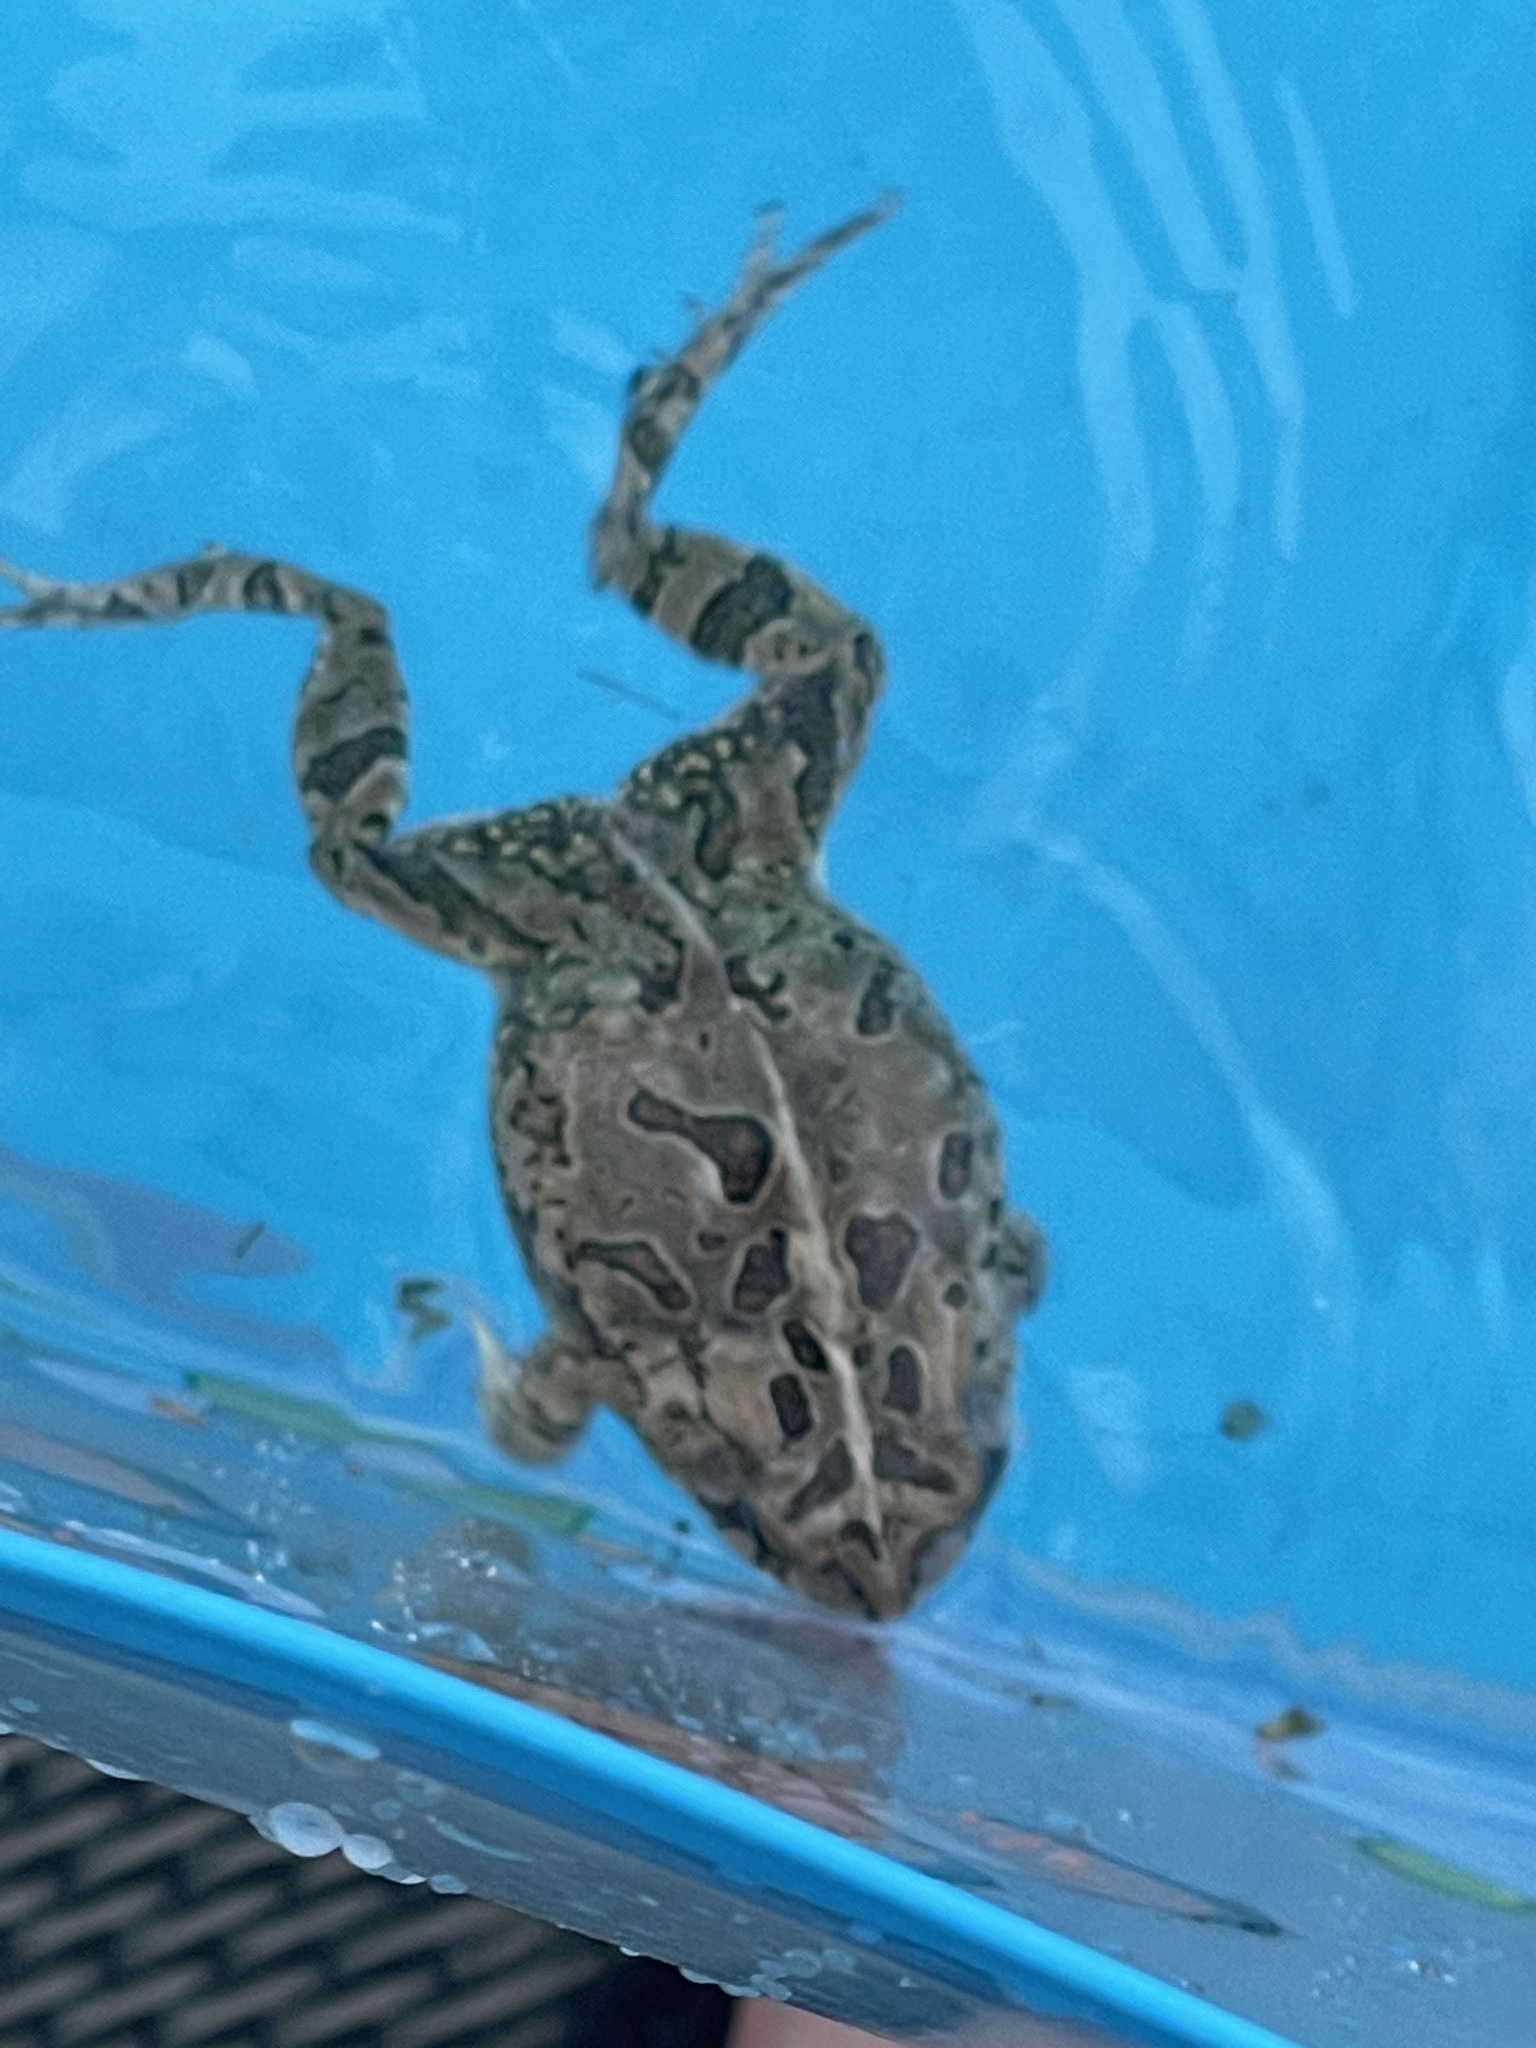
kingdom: Animalia
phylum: Chordata
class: Amphibia
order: Anura
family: Bufonidae
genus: Anaxyrus
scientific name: Anaxyrus fowleri
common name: Fowler's toad
